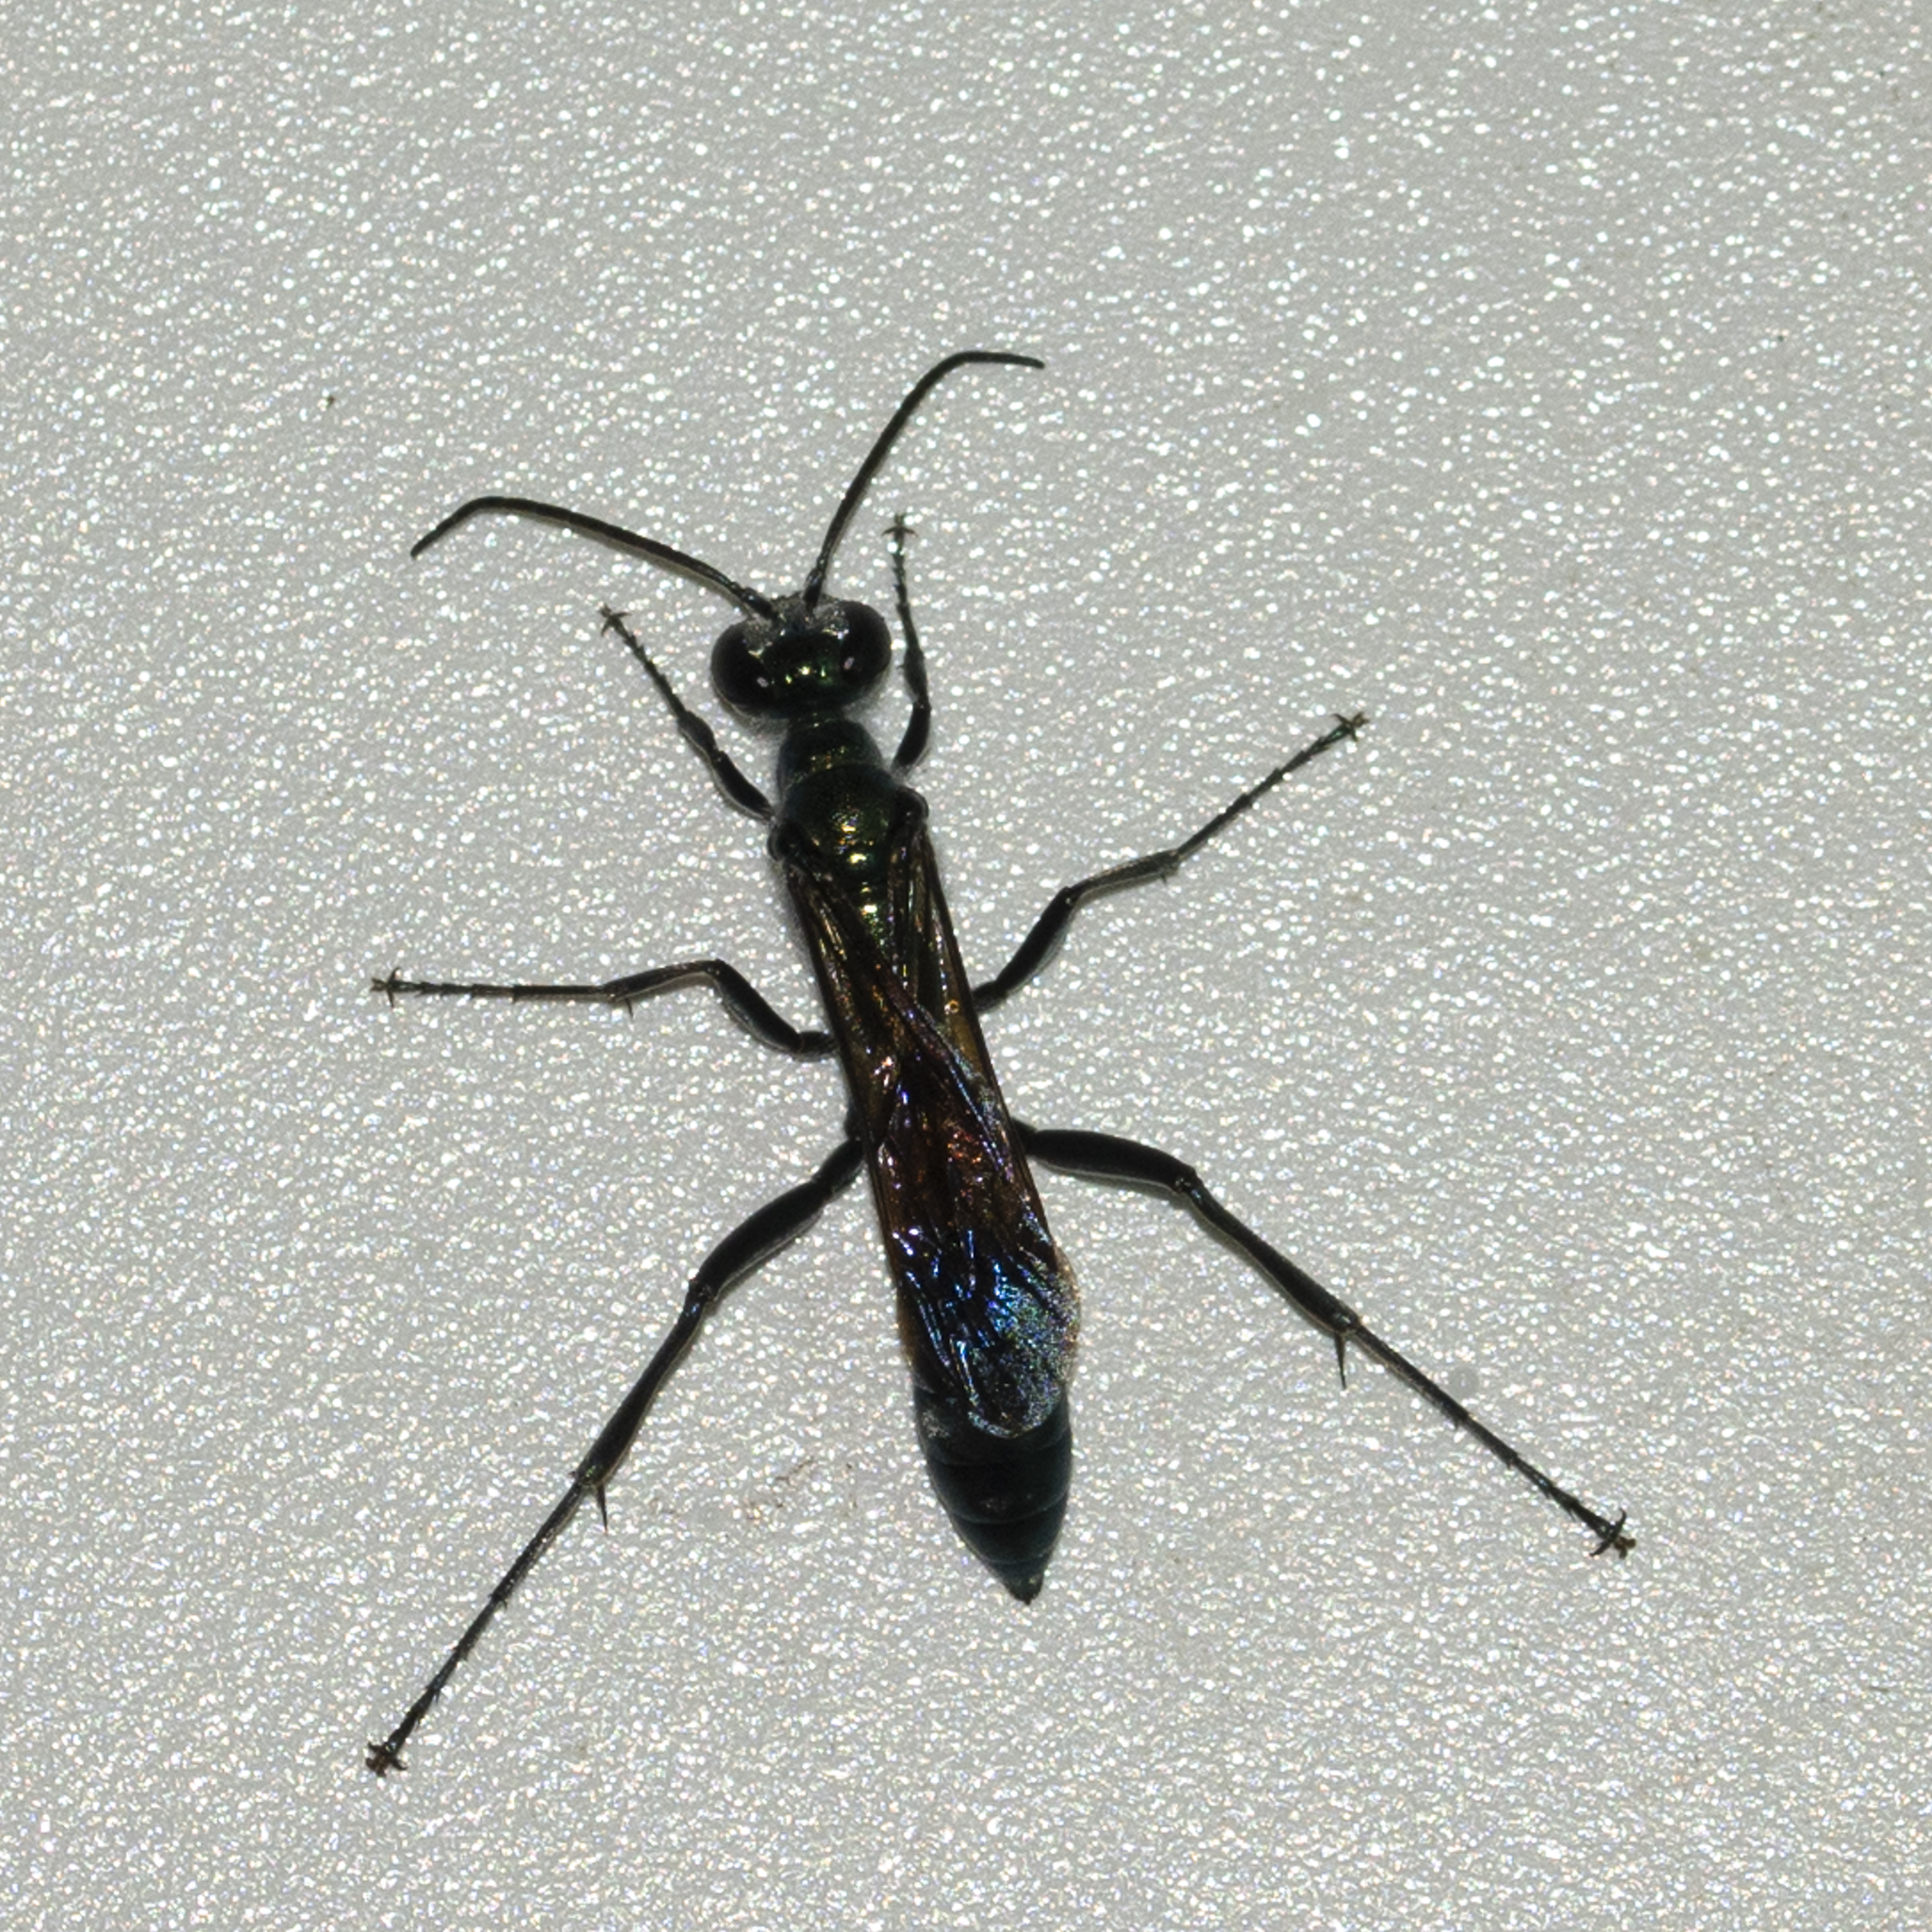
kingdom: Animalia
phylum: Arthropoda
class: Insecta
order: Hymenoptera
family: Sphecidae
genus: Chalybion
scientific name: Chalybion bengalense
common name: Mud dauber
